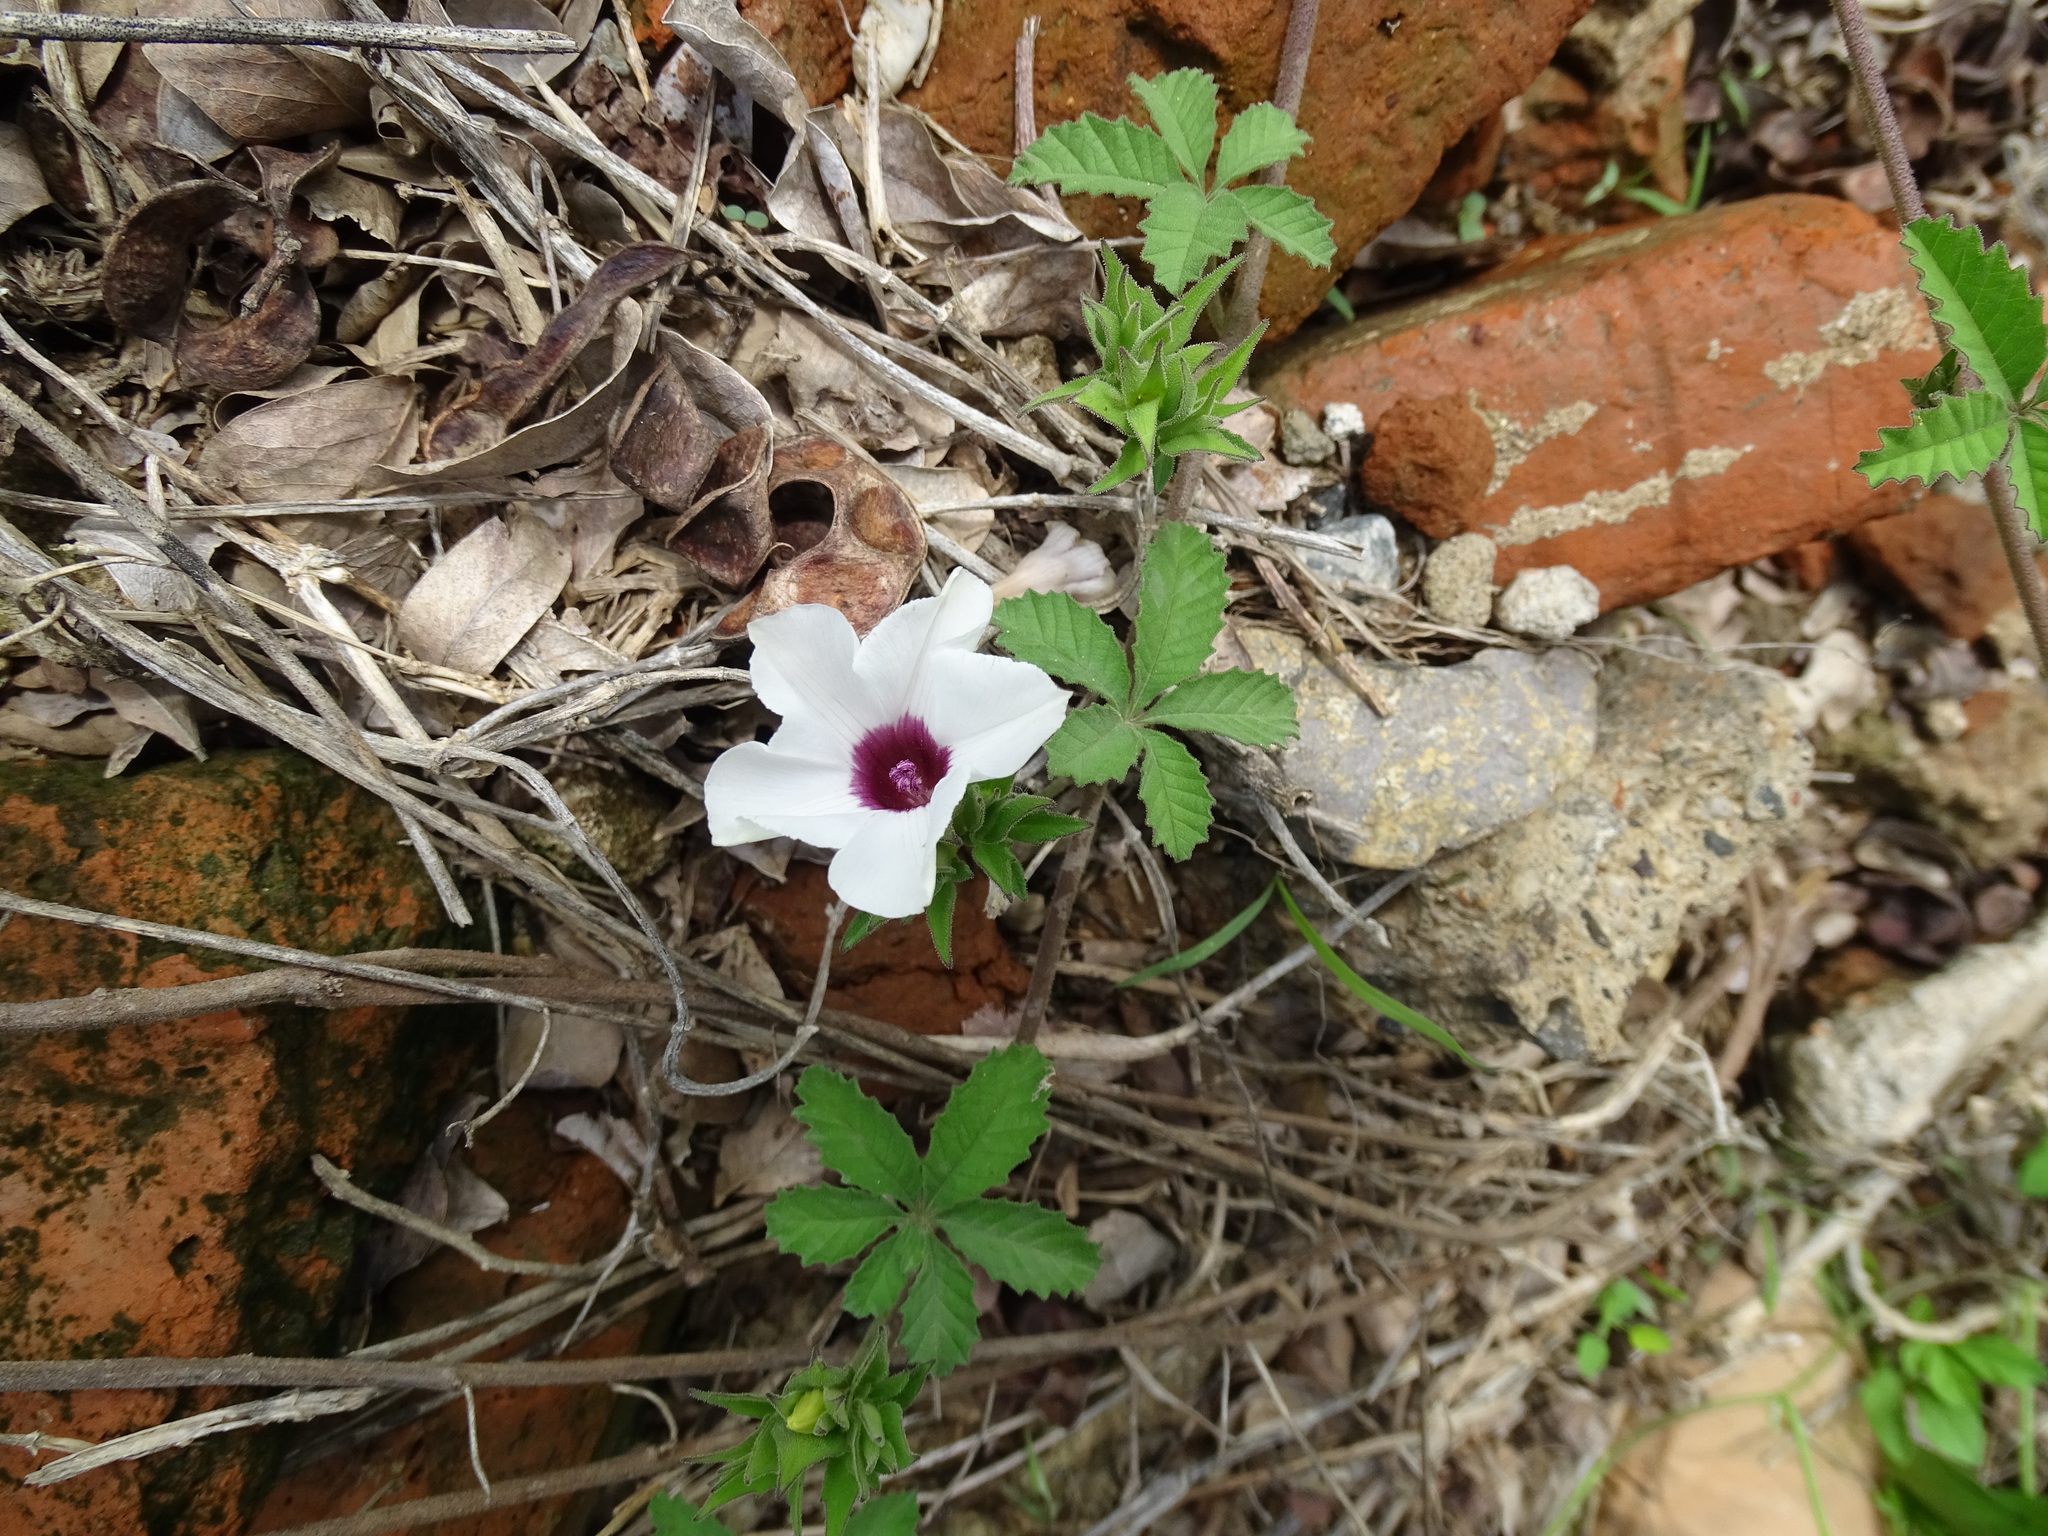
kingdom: Plantae
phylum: Tracheophyta
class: Magnoliopsida
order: Solanales
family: Convolvulaceae
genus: Distimake
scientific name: Distimake lobulibracteatus
